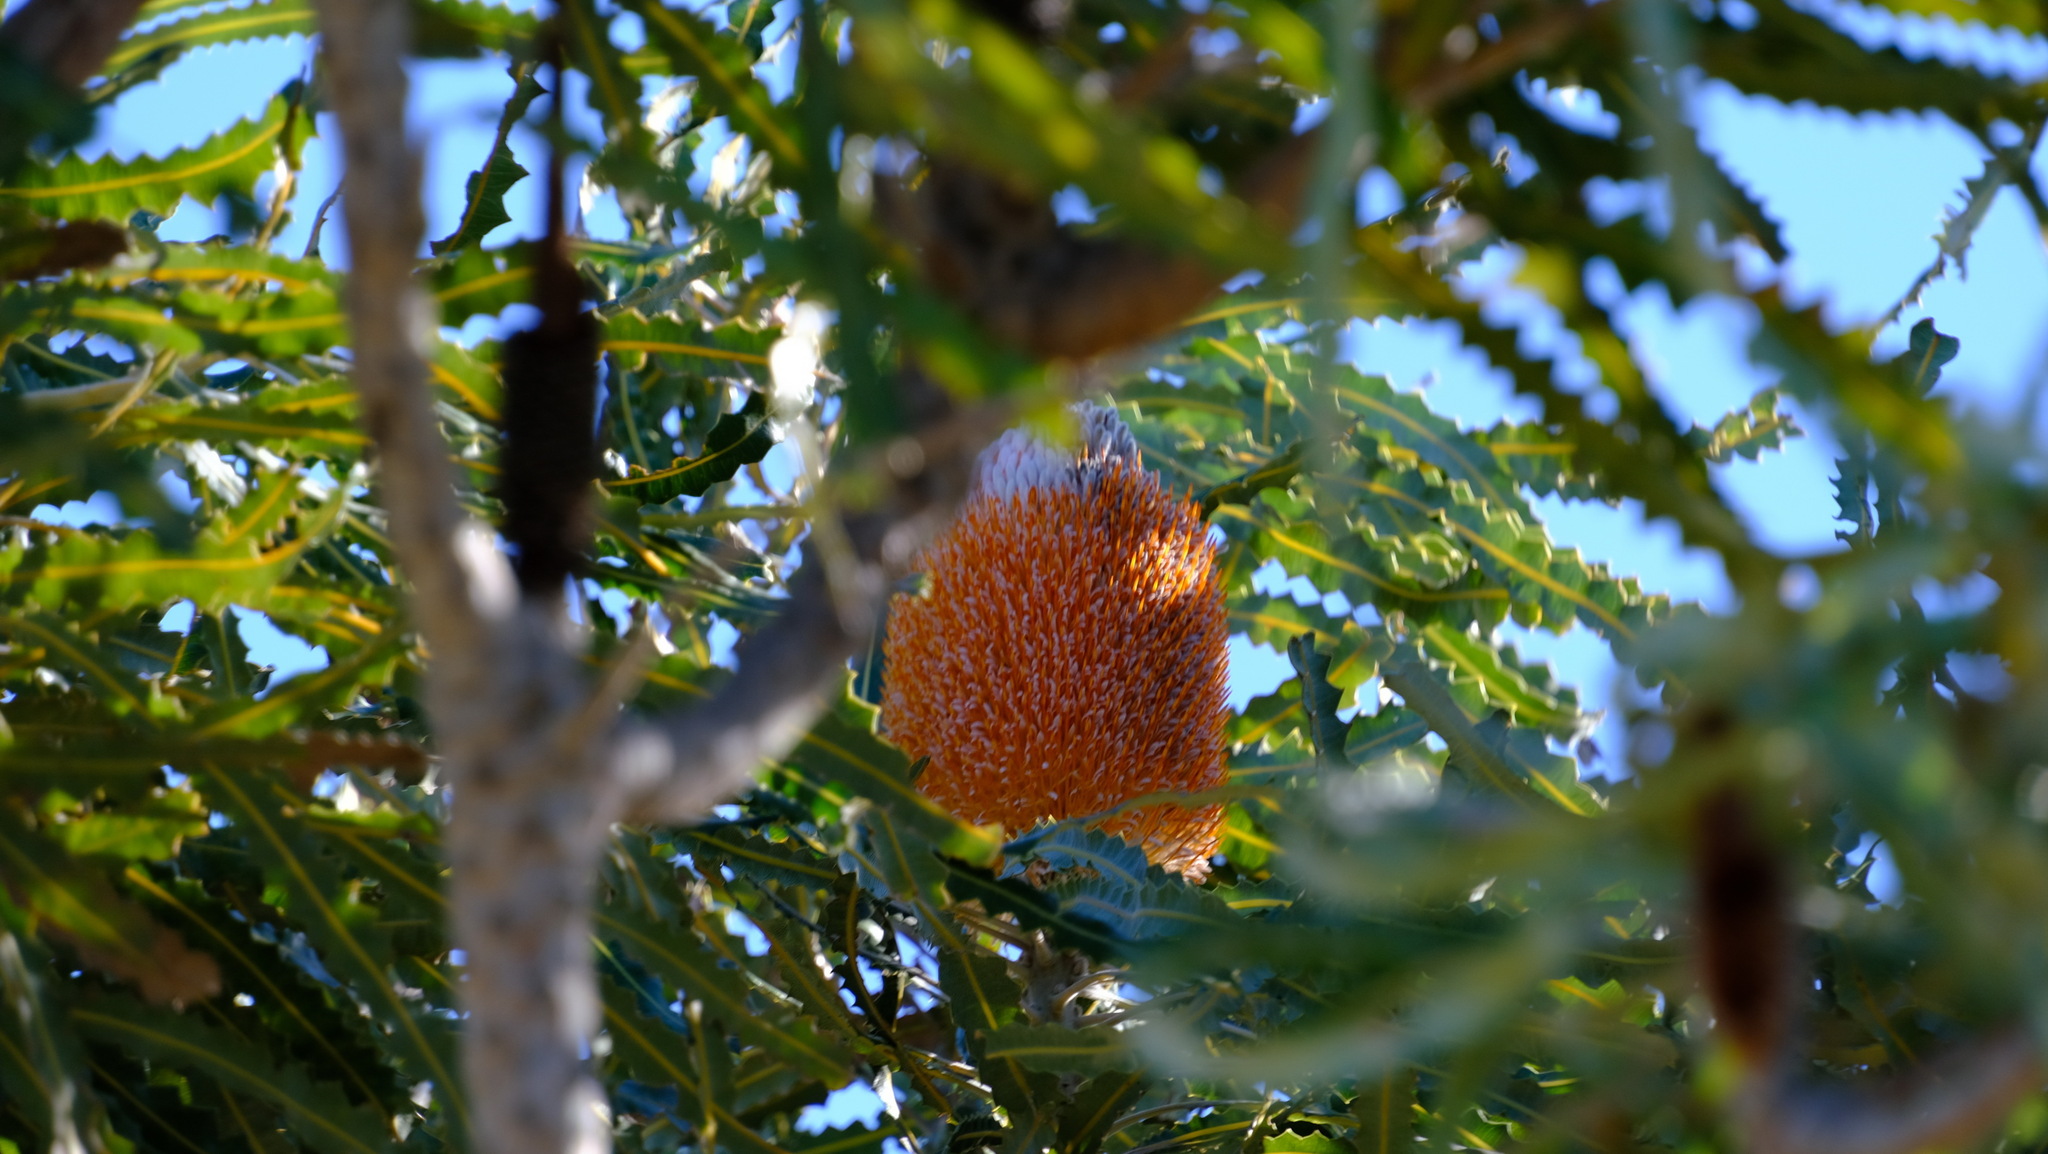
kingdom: Plantae
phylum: Tracheophyta
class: Magnoliopsida
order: Proteales
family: Proteaceae
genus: Banksia
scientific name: Banksia prionotes
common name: Acorn banksia
